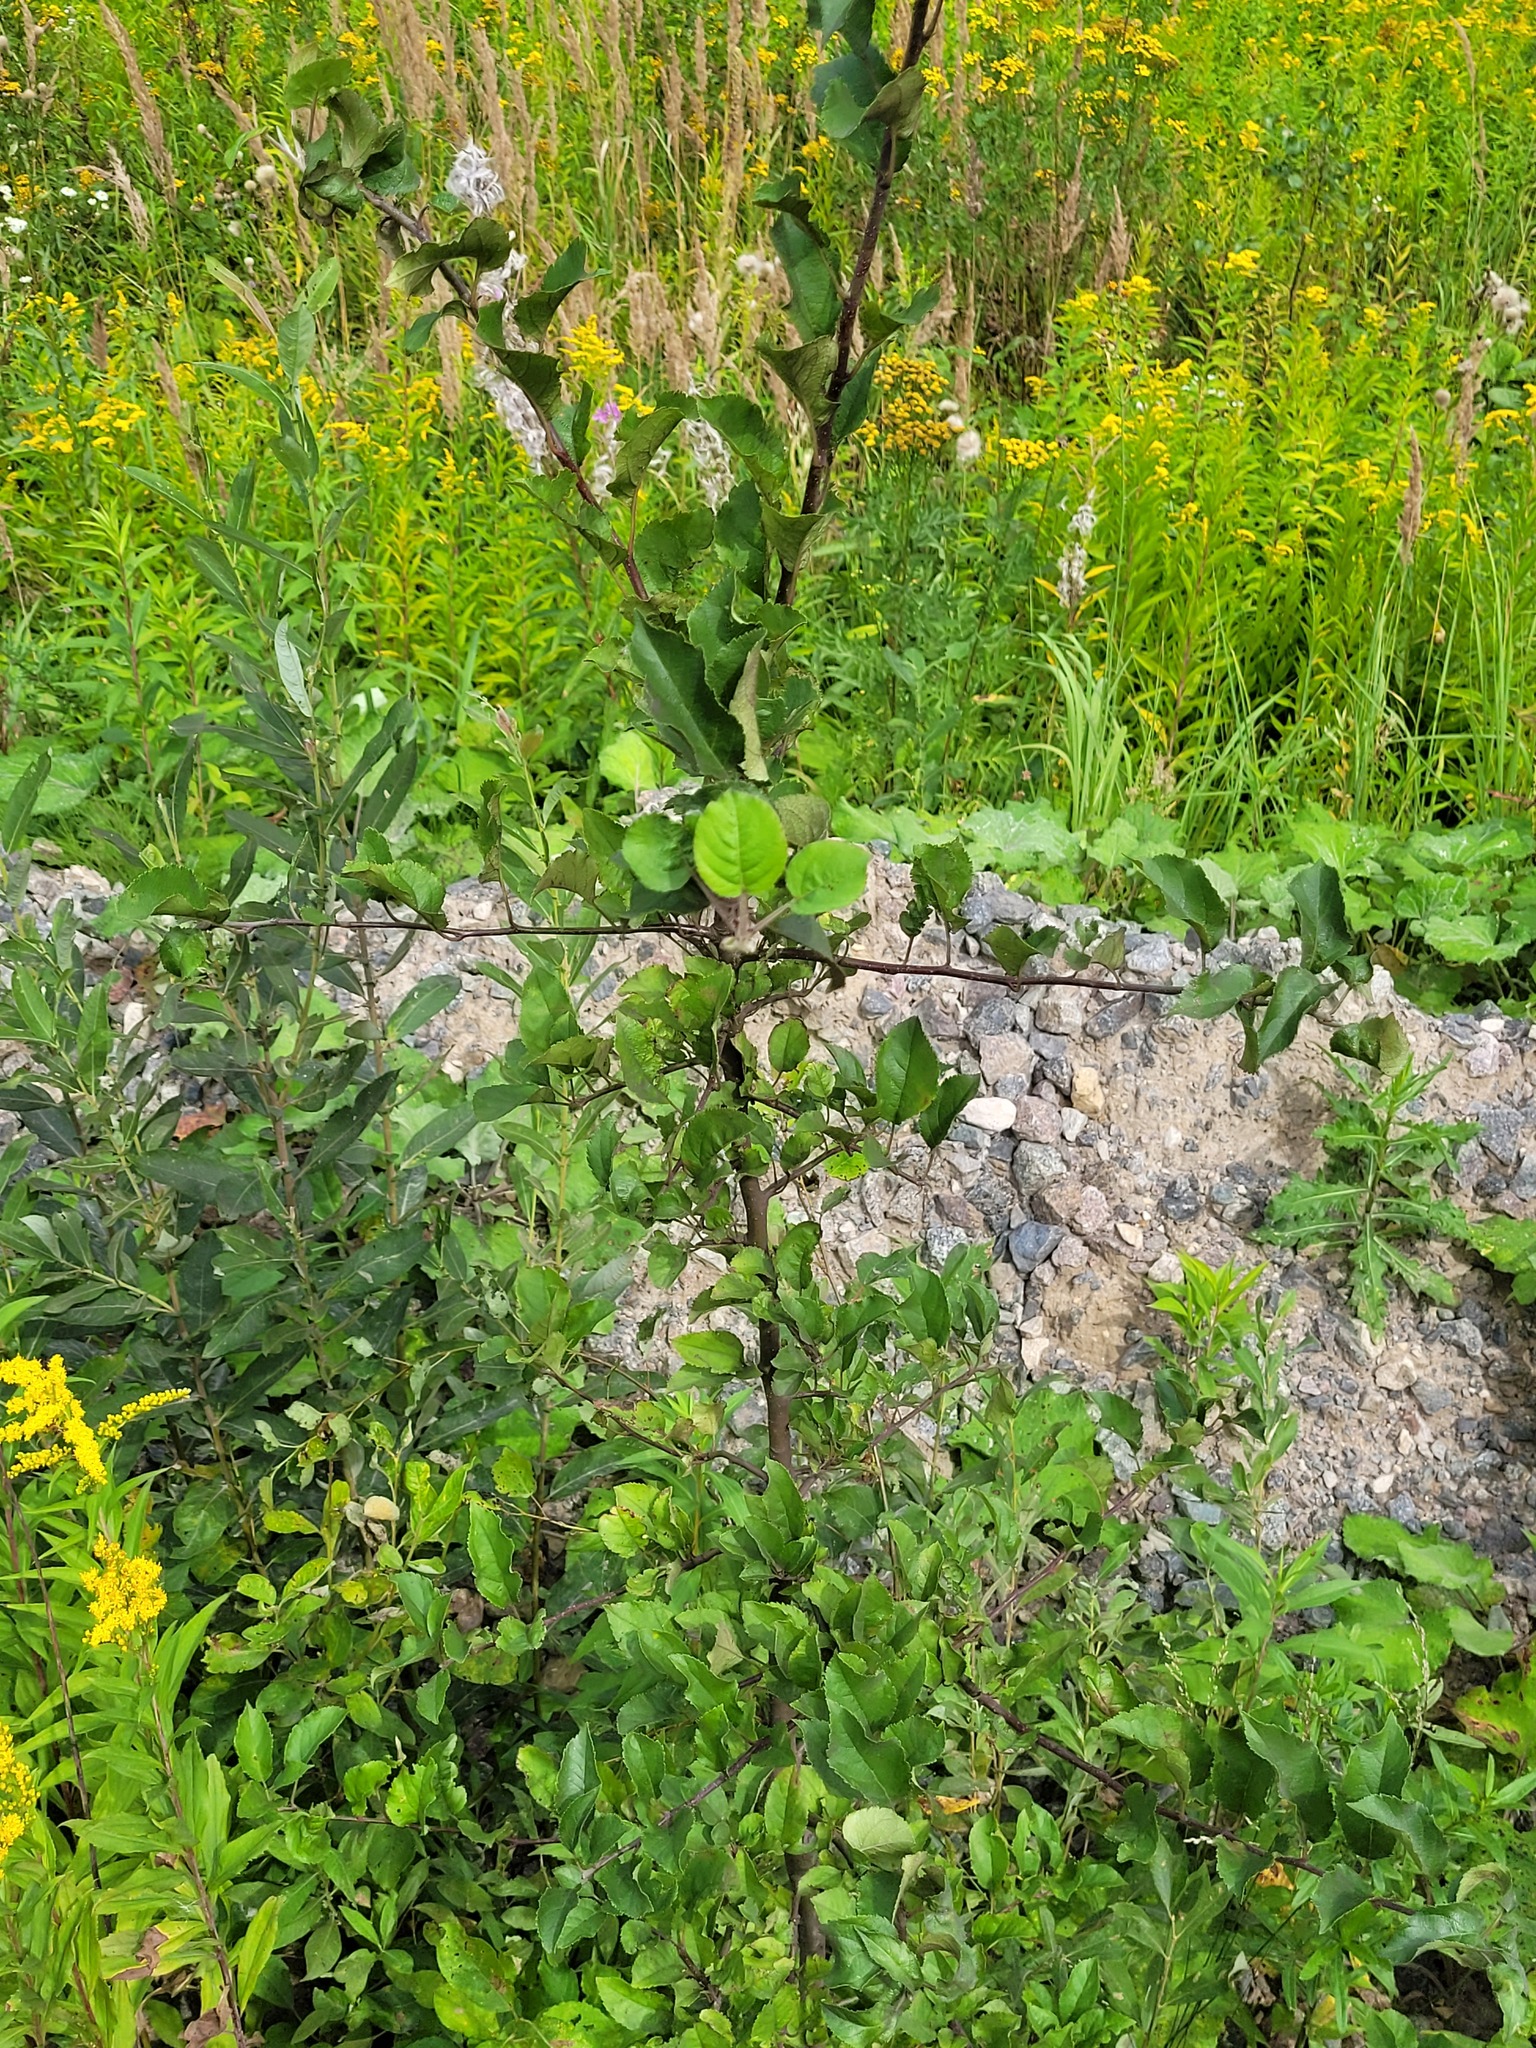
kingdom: Plantae
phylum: Tracheophyta
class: Magnoliopsida
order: Rosales
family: Rosaceae
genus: Malus
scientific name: Malus domestica
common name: Apple
